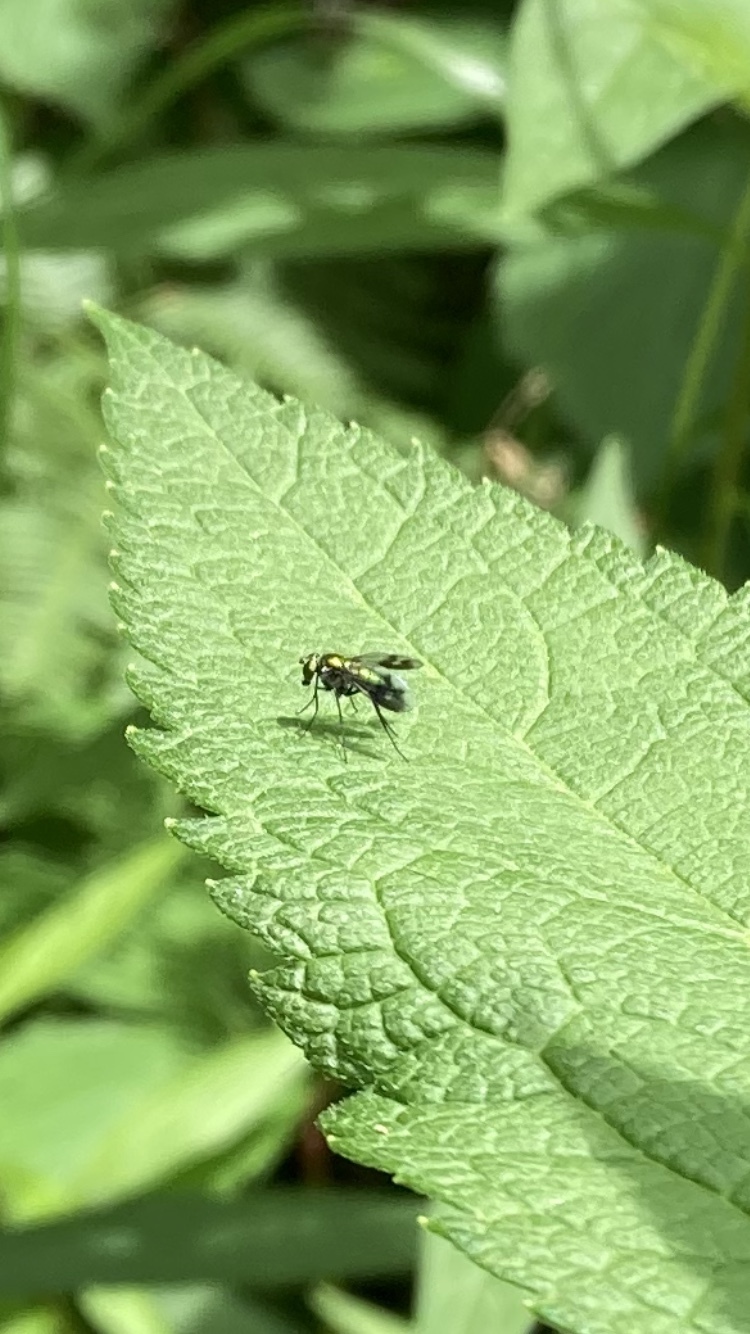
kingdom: Animalia
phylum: Arthropoda
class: Insecta
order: Diptera
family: Dolichopodidae
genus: Condylostylus
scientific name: Condylostylus patibulatus
